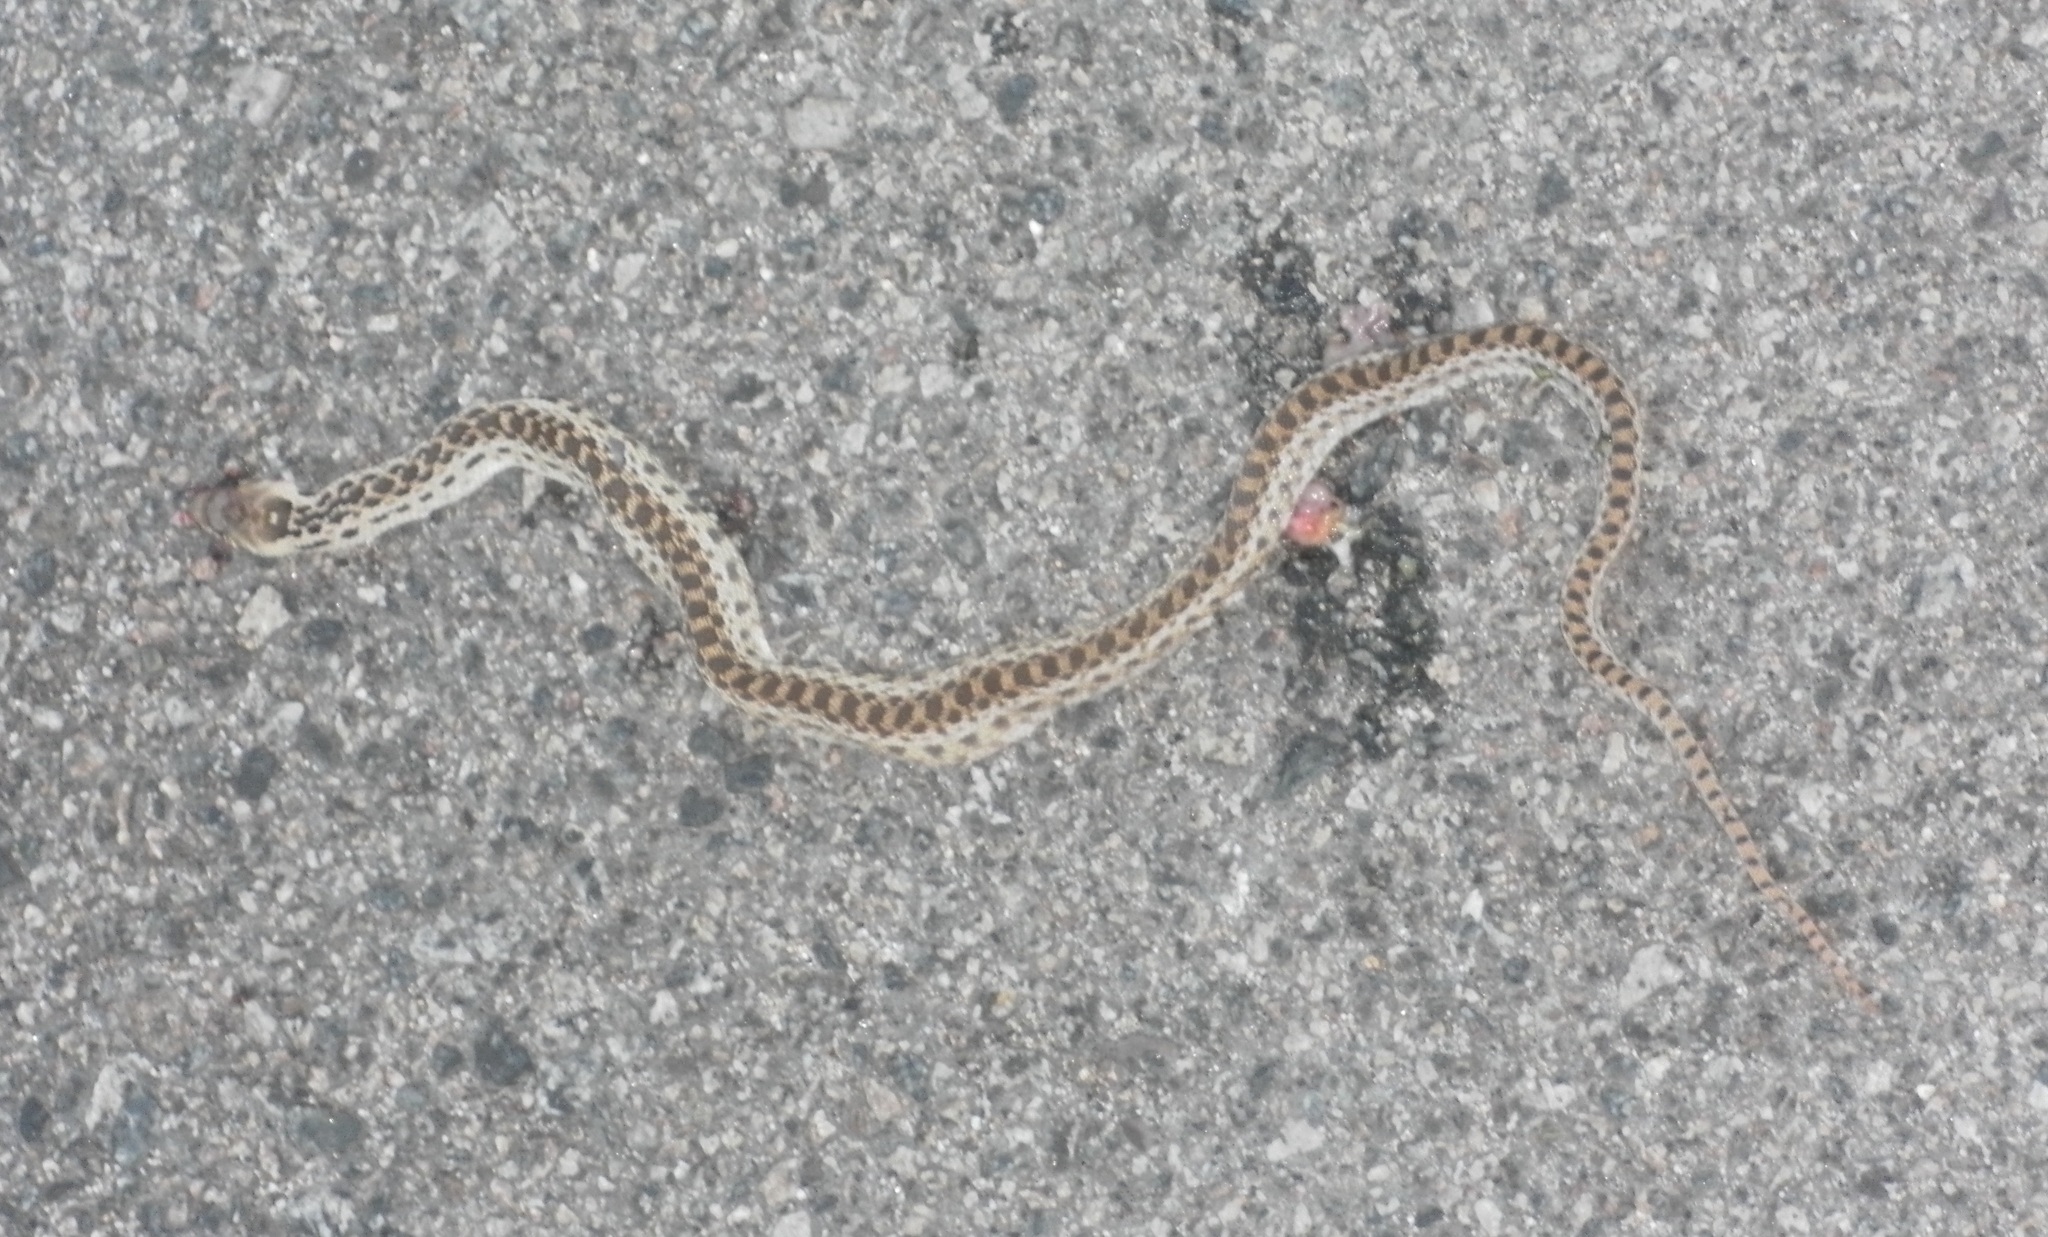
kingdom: Animalia
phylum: Chordata
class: Squamata
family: Colubridae
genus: Pituophis
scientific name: Pituophis catenifer
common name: Gopher snake
